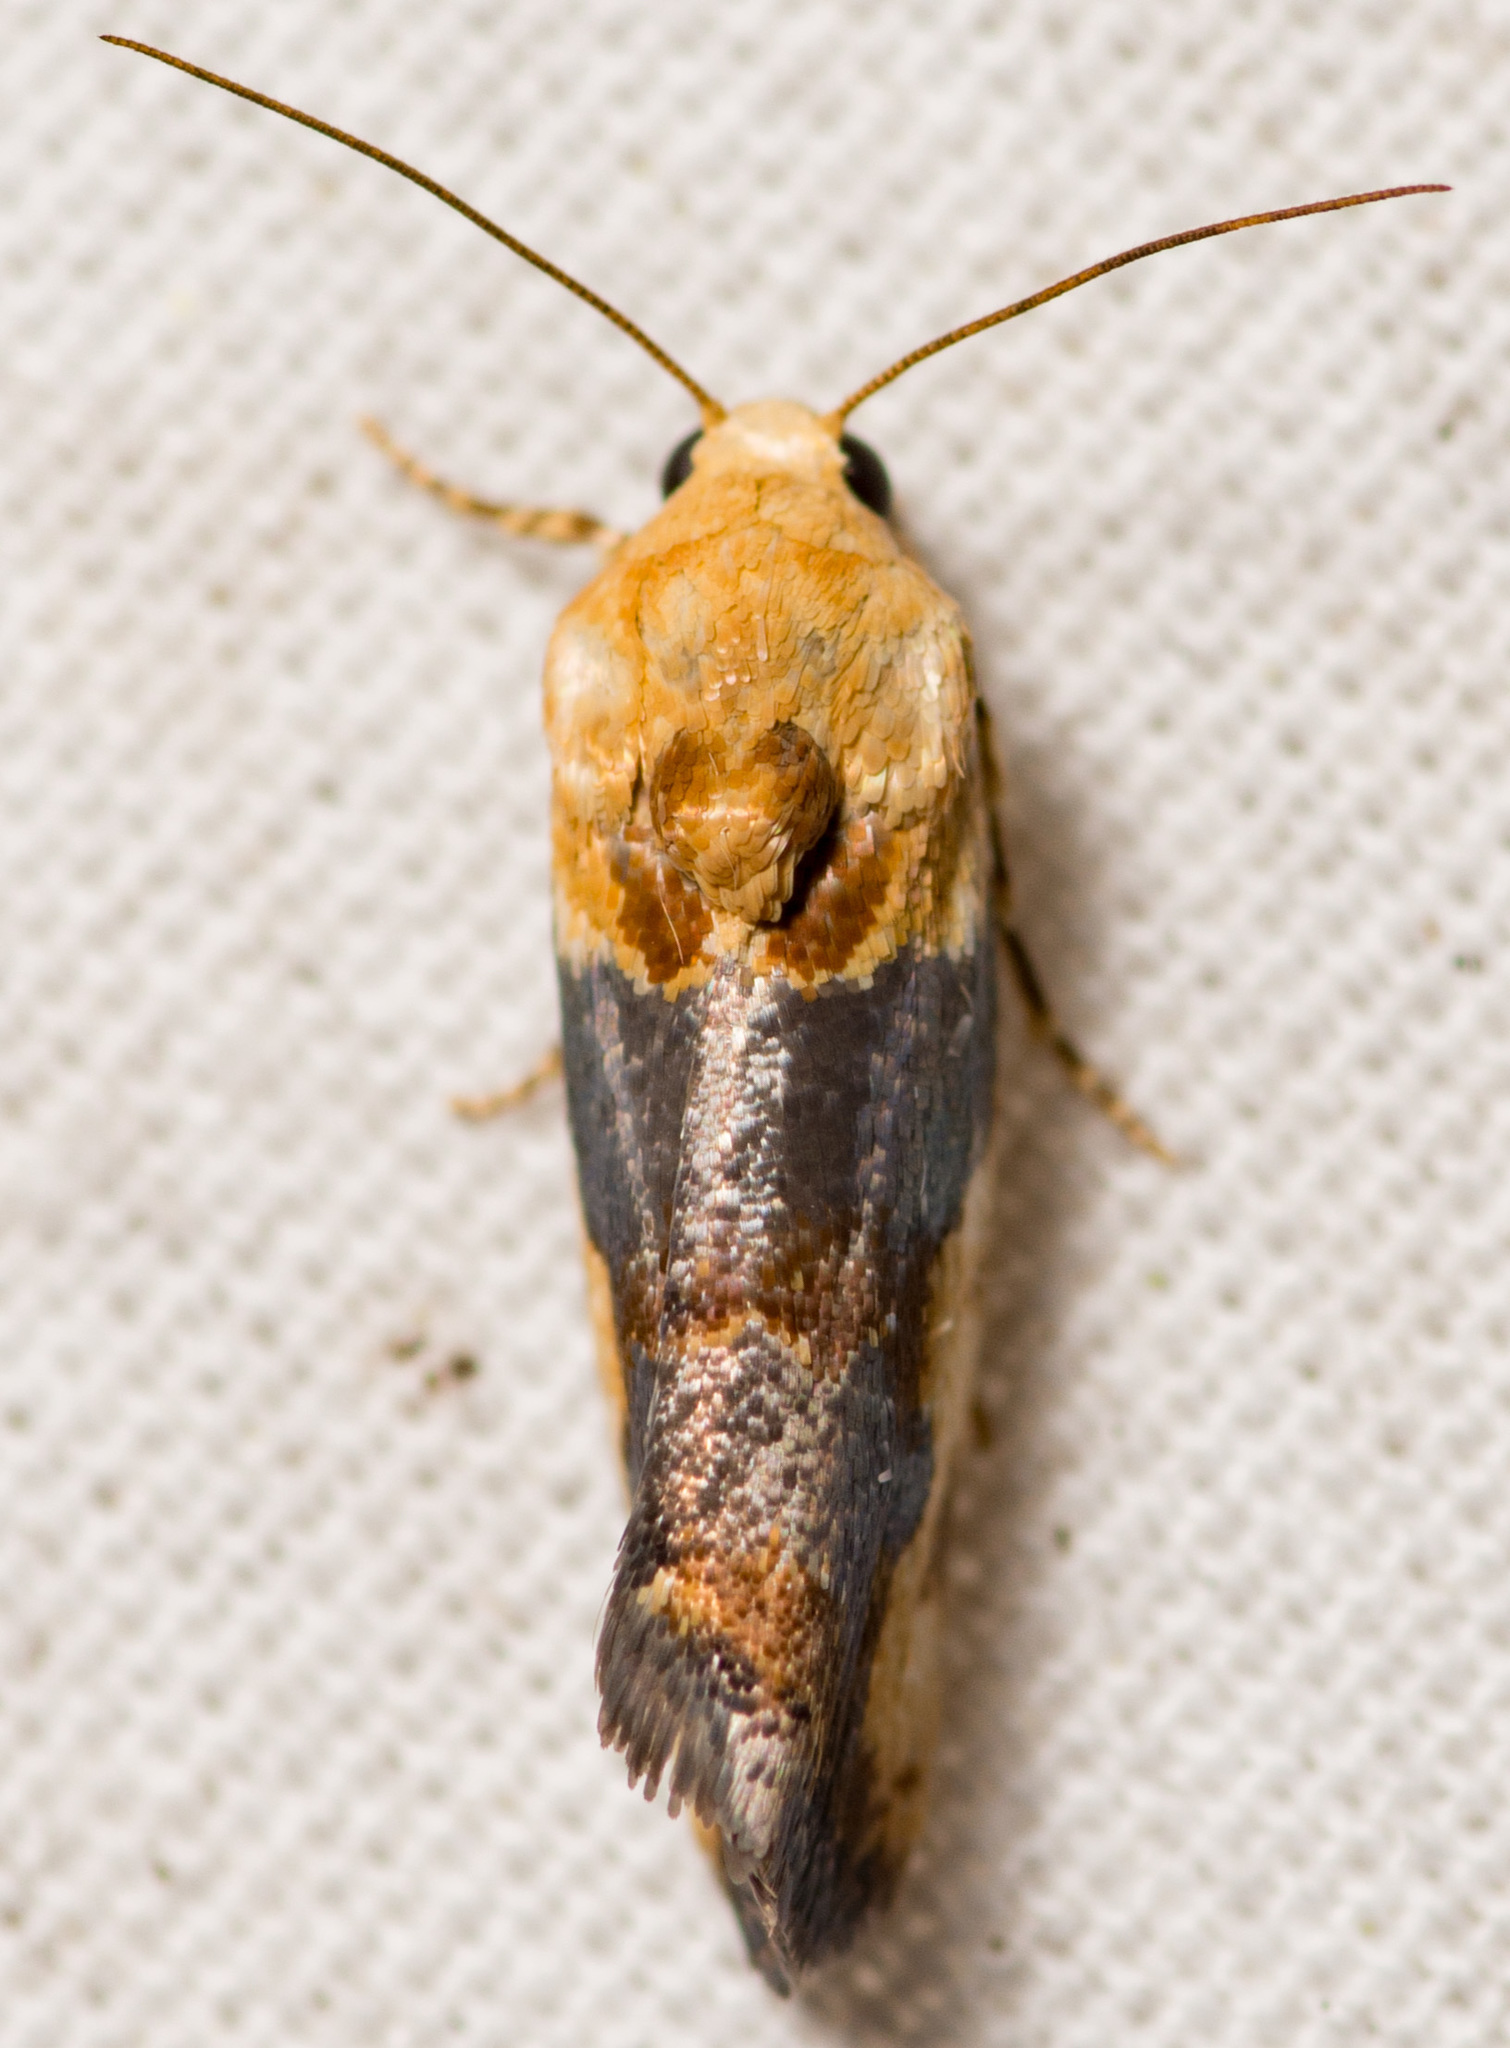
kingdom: Animalia
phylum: Arthropoda
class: Insecta
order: Lepidoptera
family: Noctuidae
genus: Acontia
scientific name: Acontia obatra
